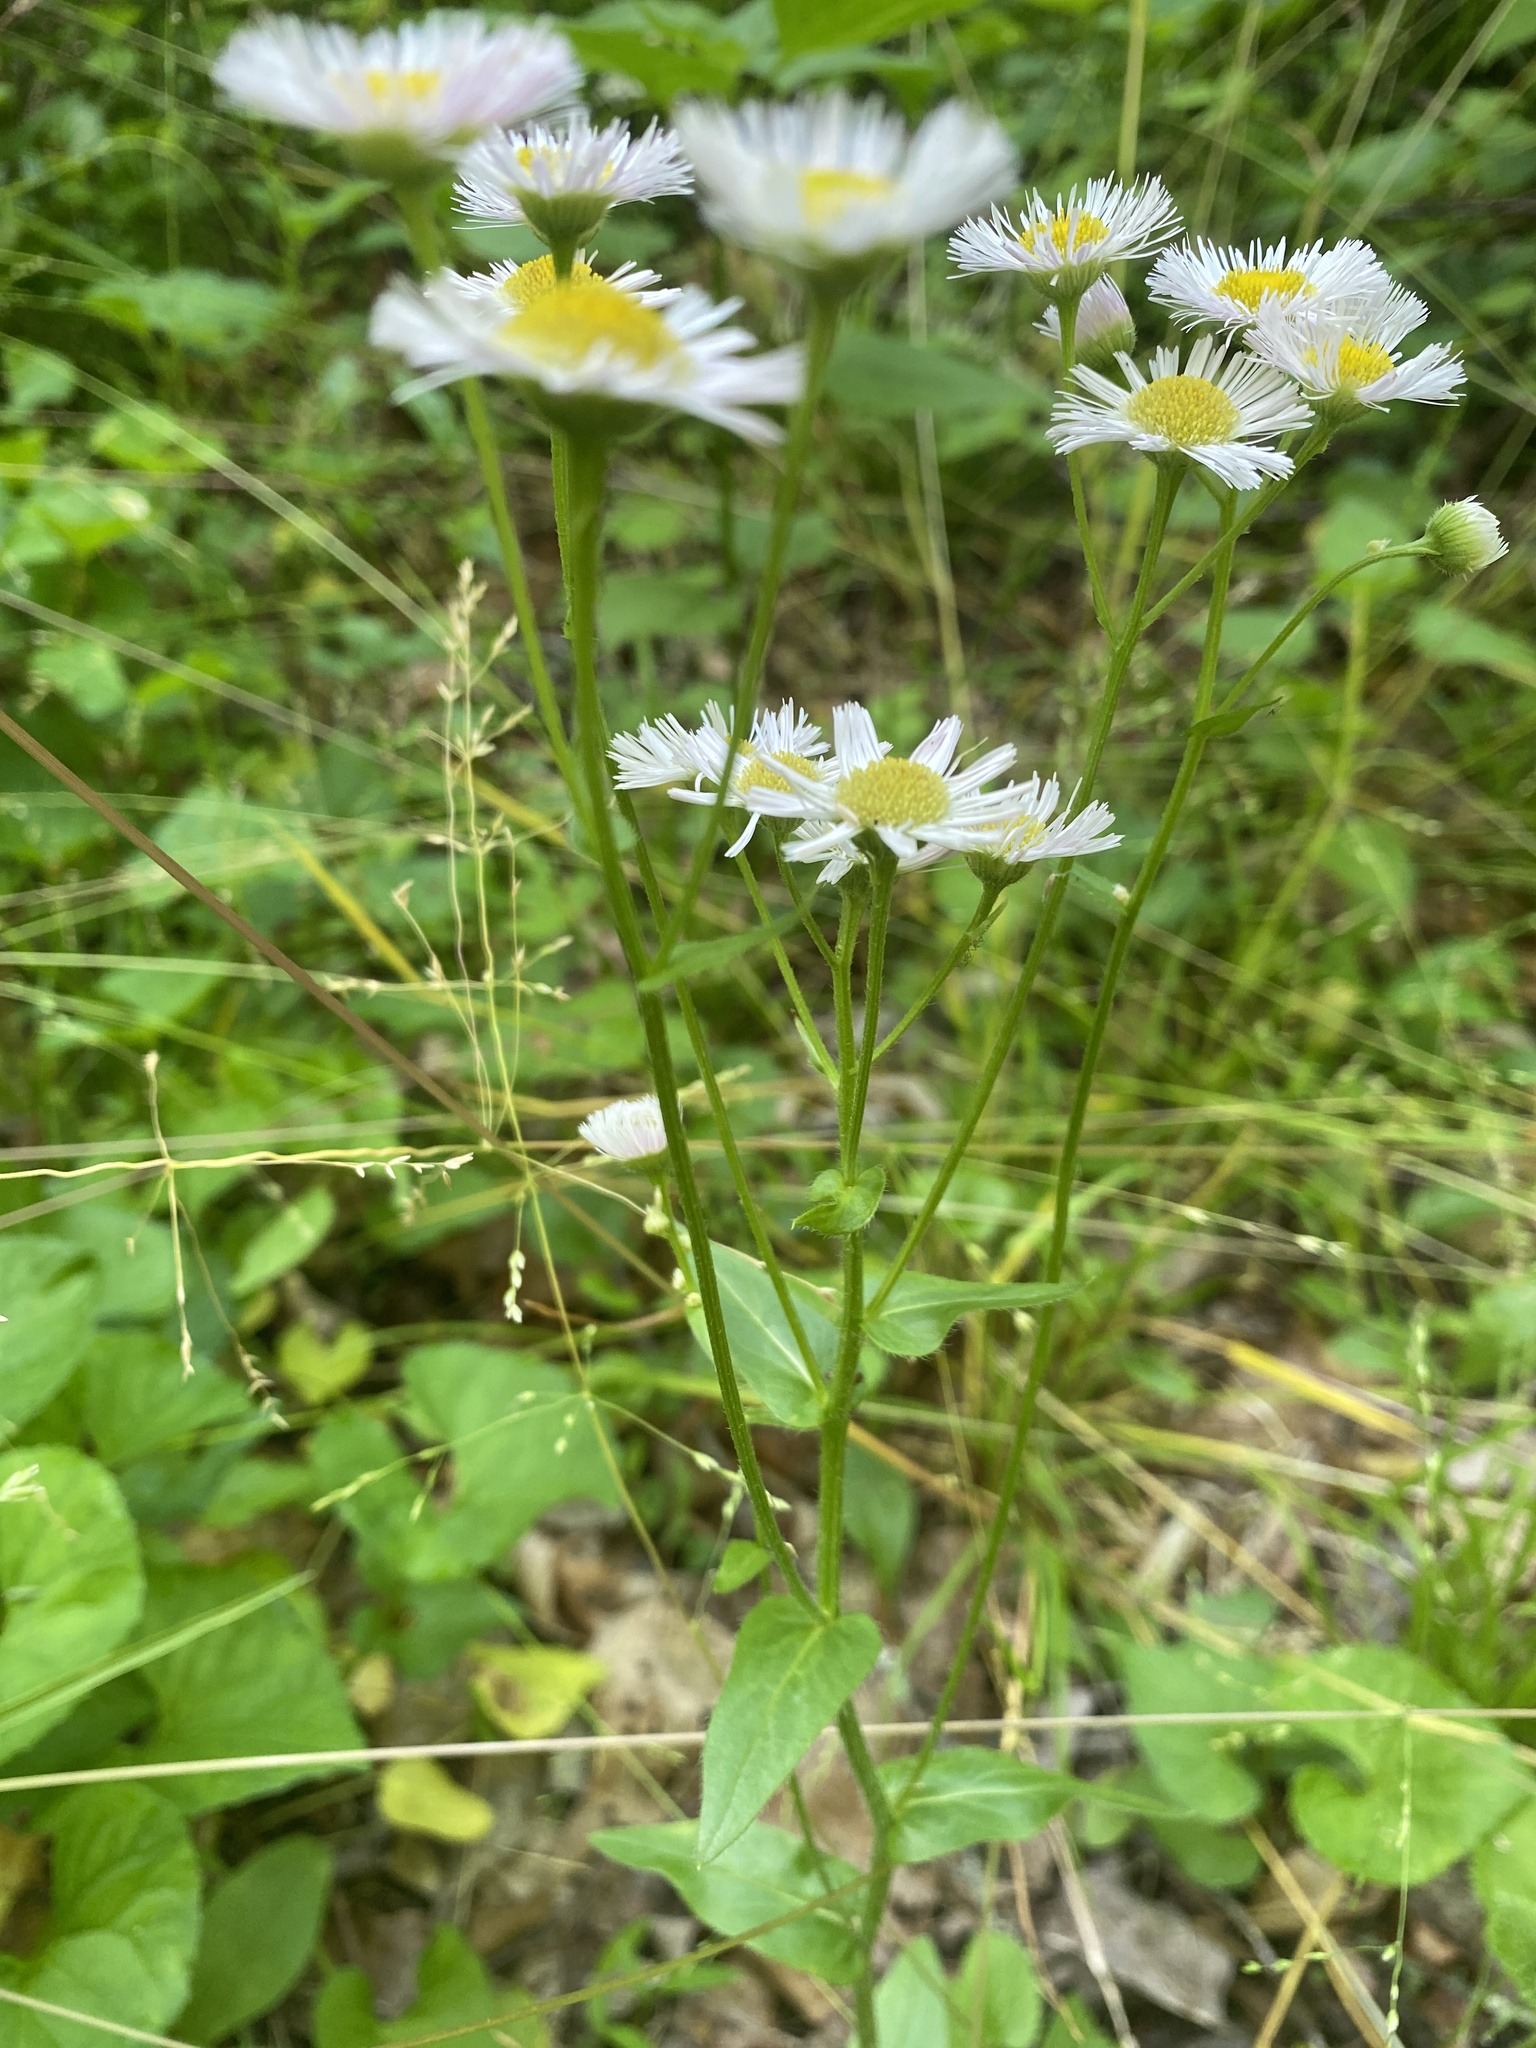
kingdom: Plantae
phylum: Tracheophyta
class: Magnoliopsida
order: Asterales
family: Asteraceae
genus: Erigeron
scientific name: Erigeron philadelphicus
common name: Robin's-plantain
